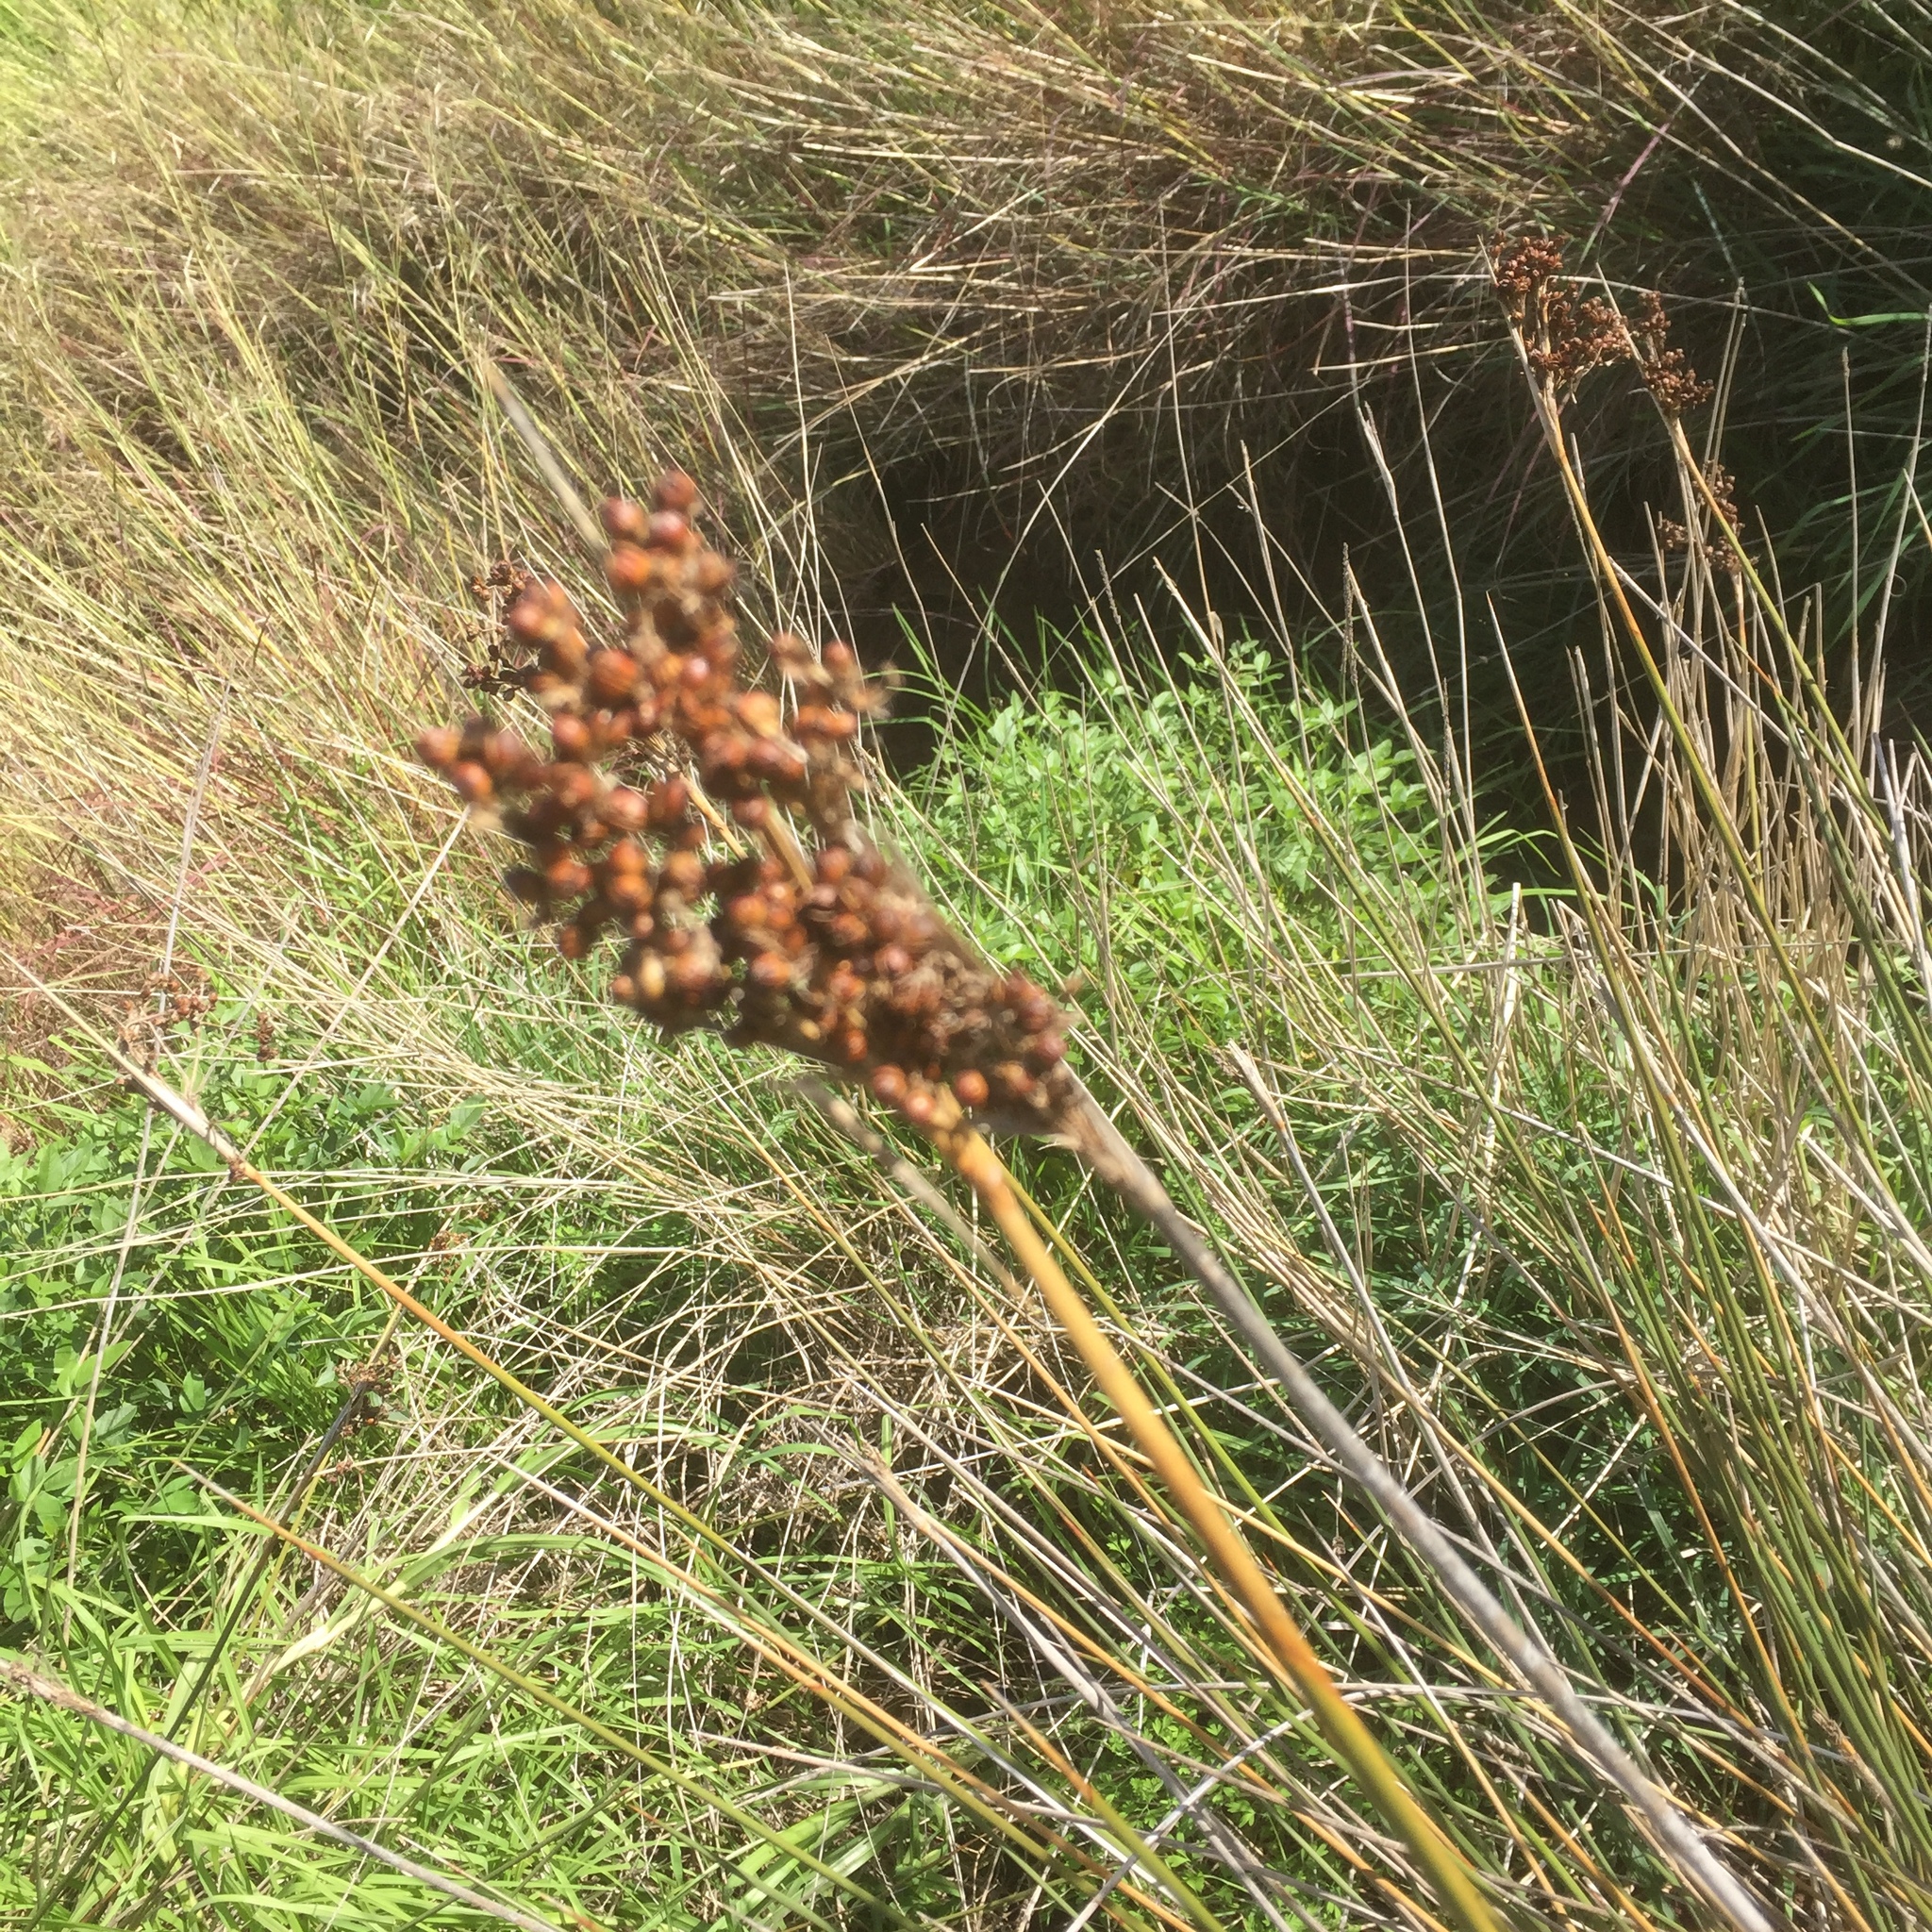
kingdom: Plantae
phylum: Tracheophyta
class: Liliopsida
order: Poales
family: Juncaceae
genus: Juncus
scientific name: Juncus acutus
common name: Sharp rush
